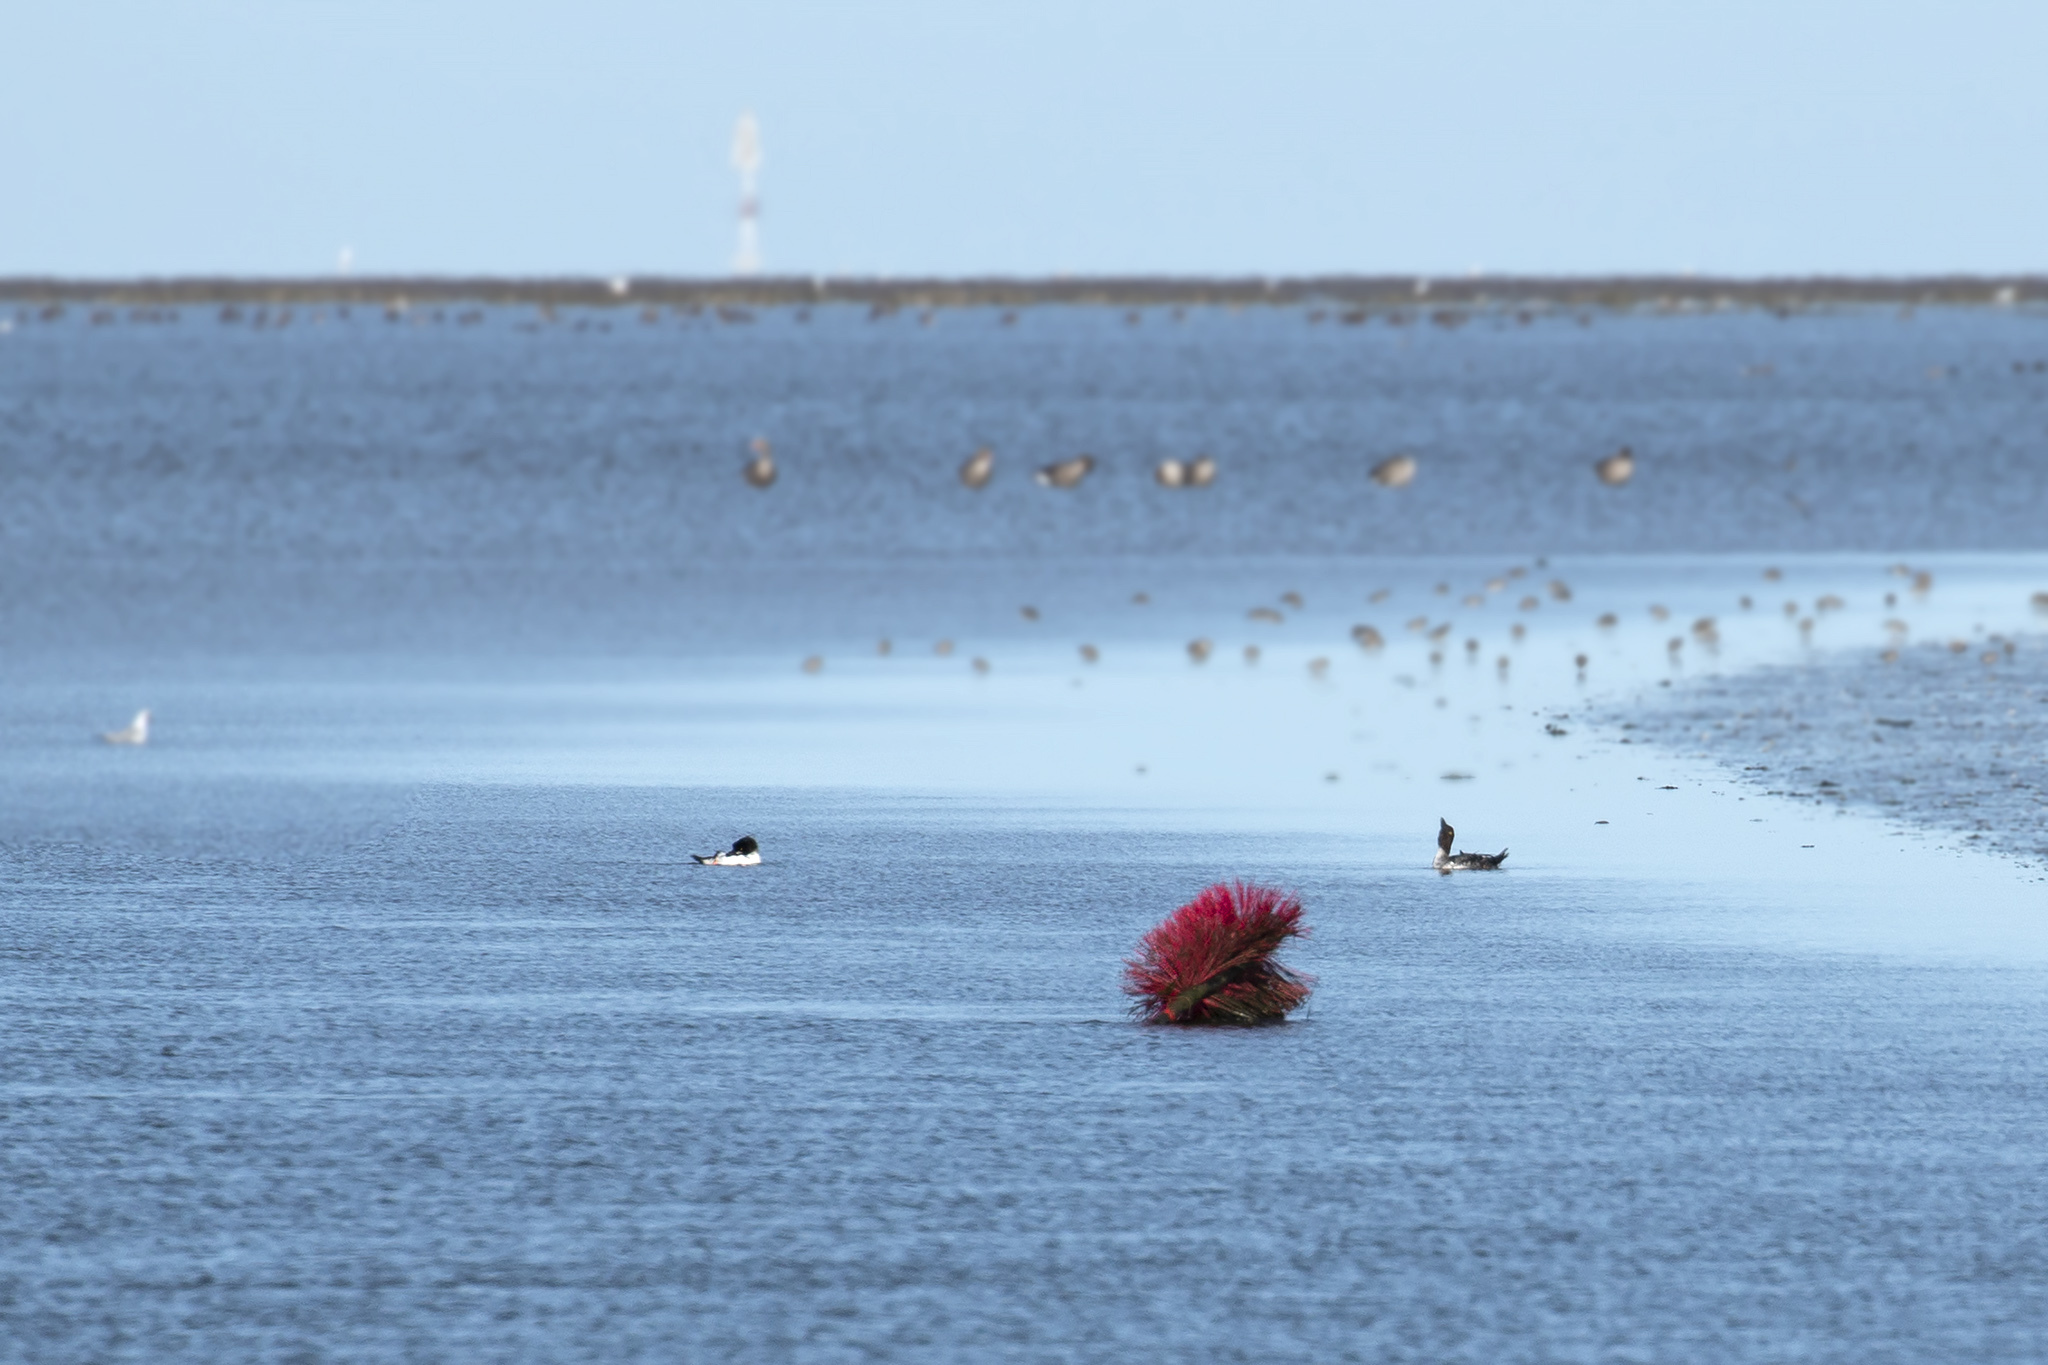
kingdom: Animalia
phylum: Chordata
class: Aves
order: Anseriformes
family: Anatidae
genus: Mergus
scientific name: Mergus merganser
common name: Common merganser
